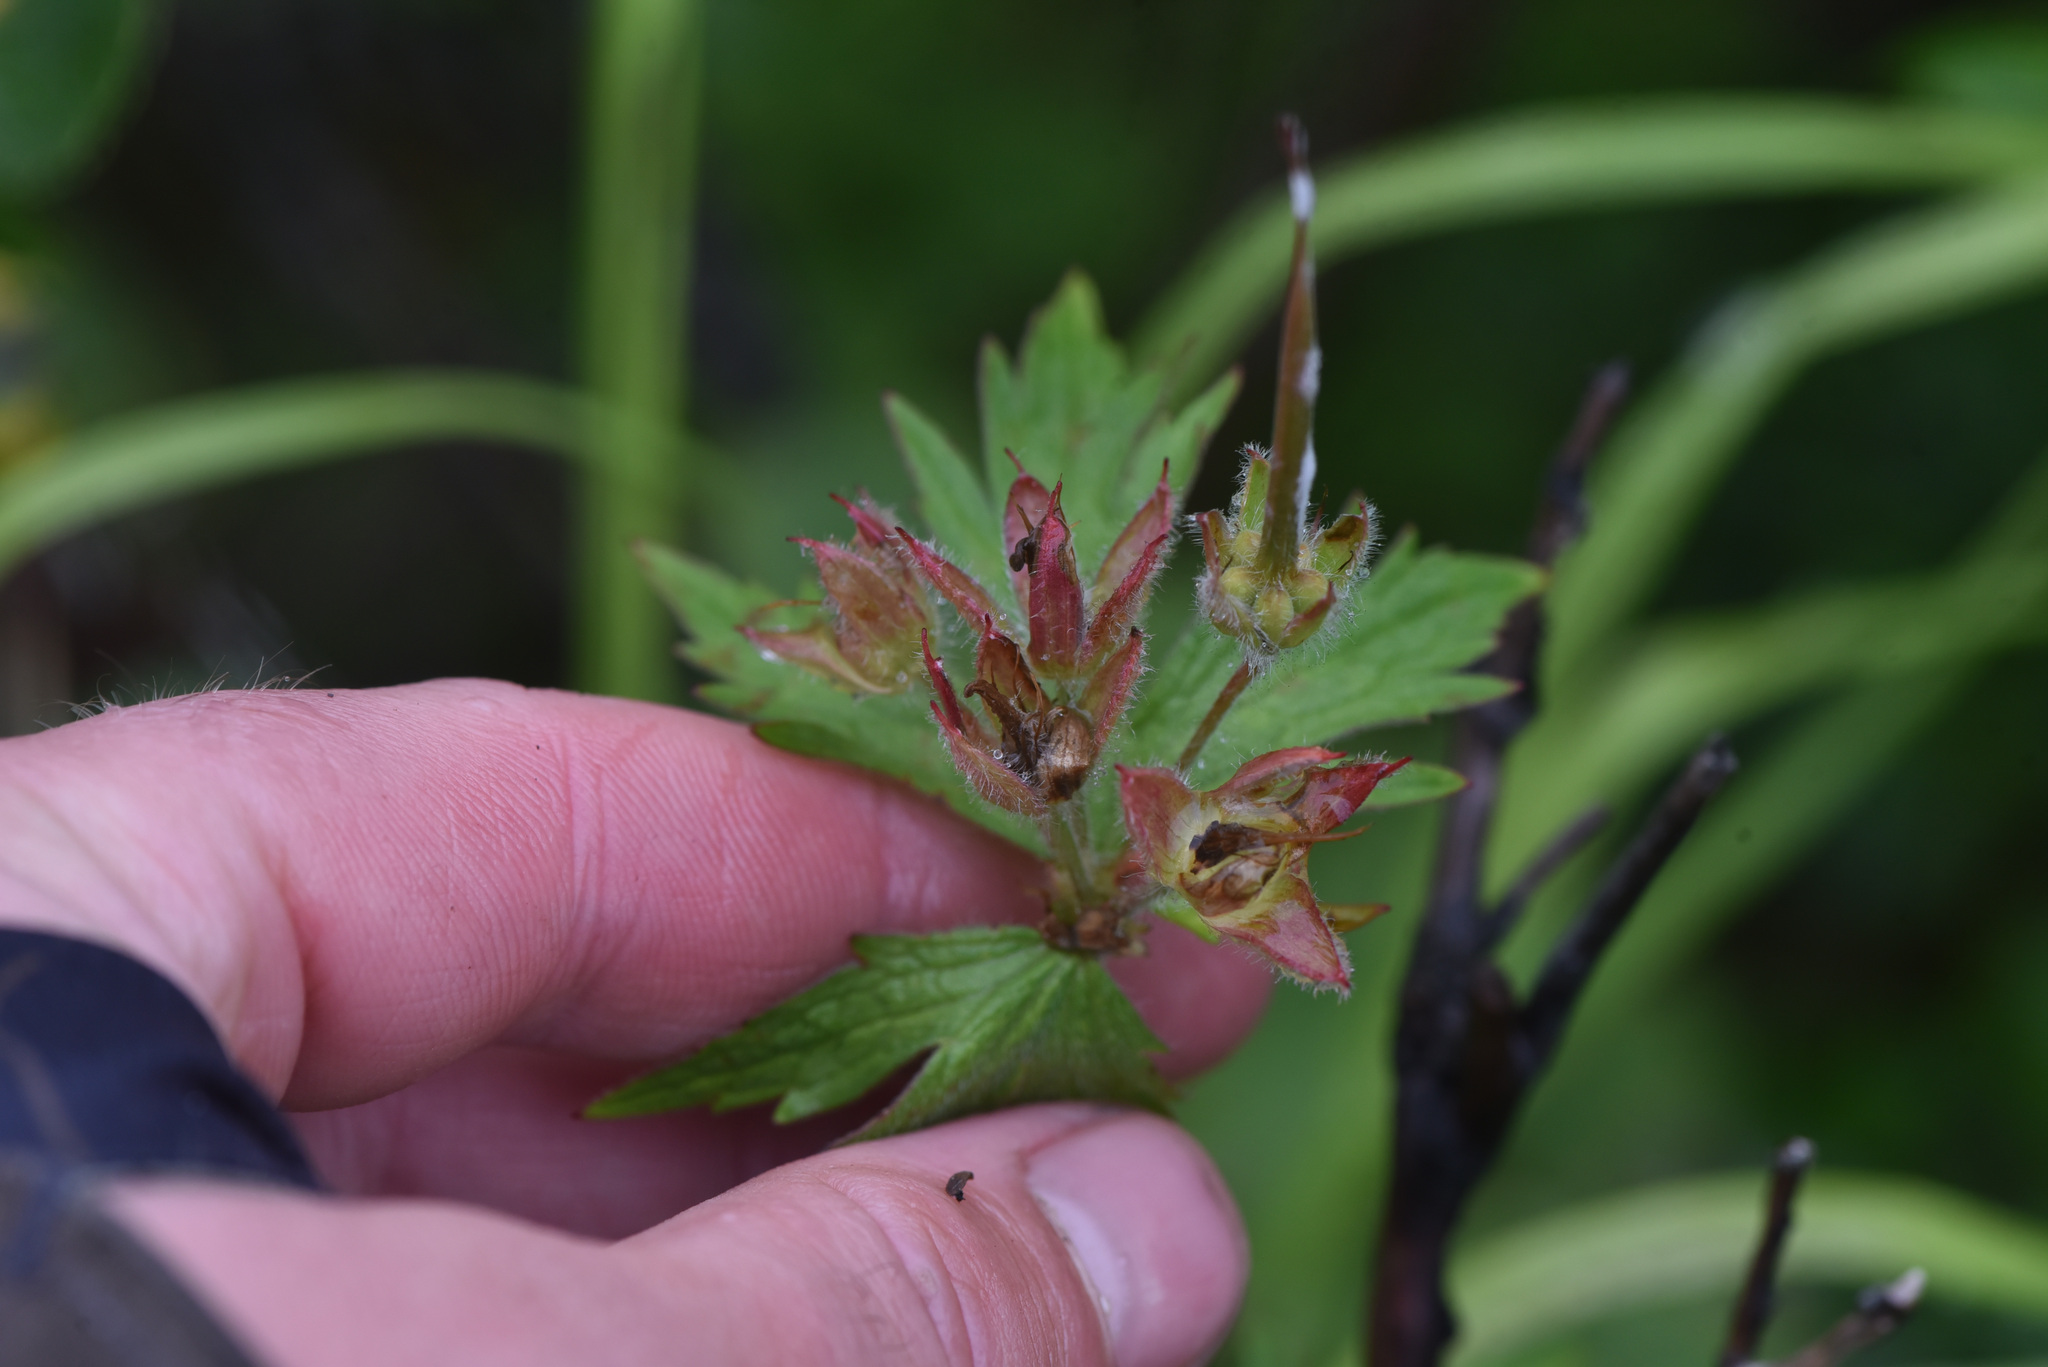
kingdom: Plantae
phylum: Tracheophyta
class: Magnoliopsida
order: Geraniales
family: Geraniaceae
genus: Geranium
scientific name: Geranium erianthum
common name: Northern crane's-bill
